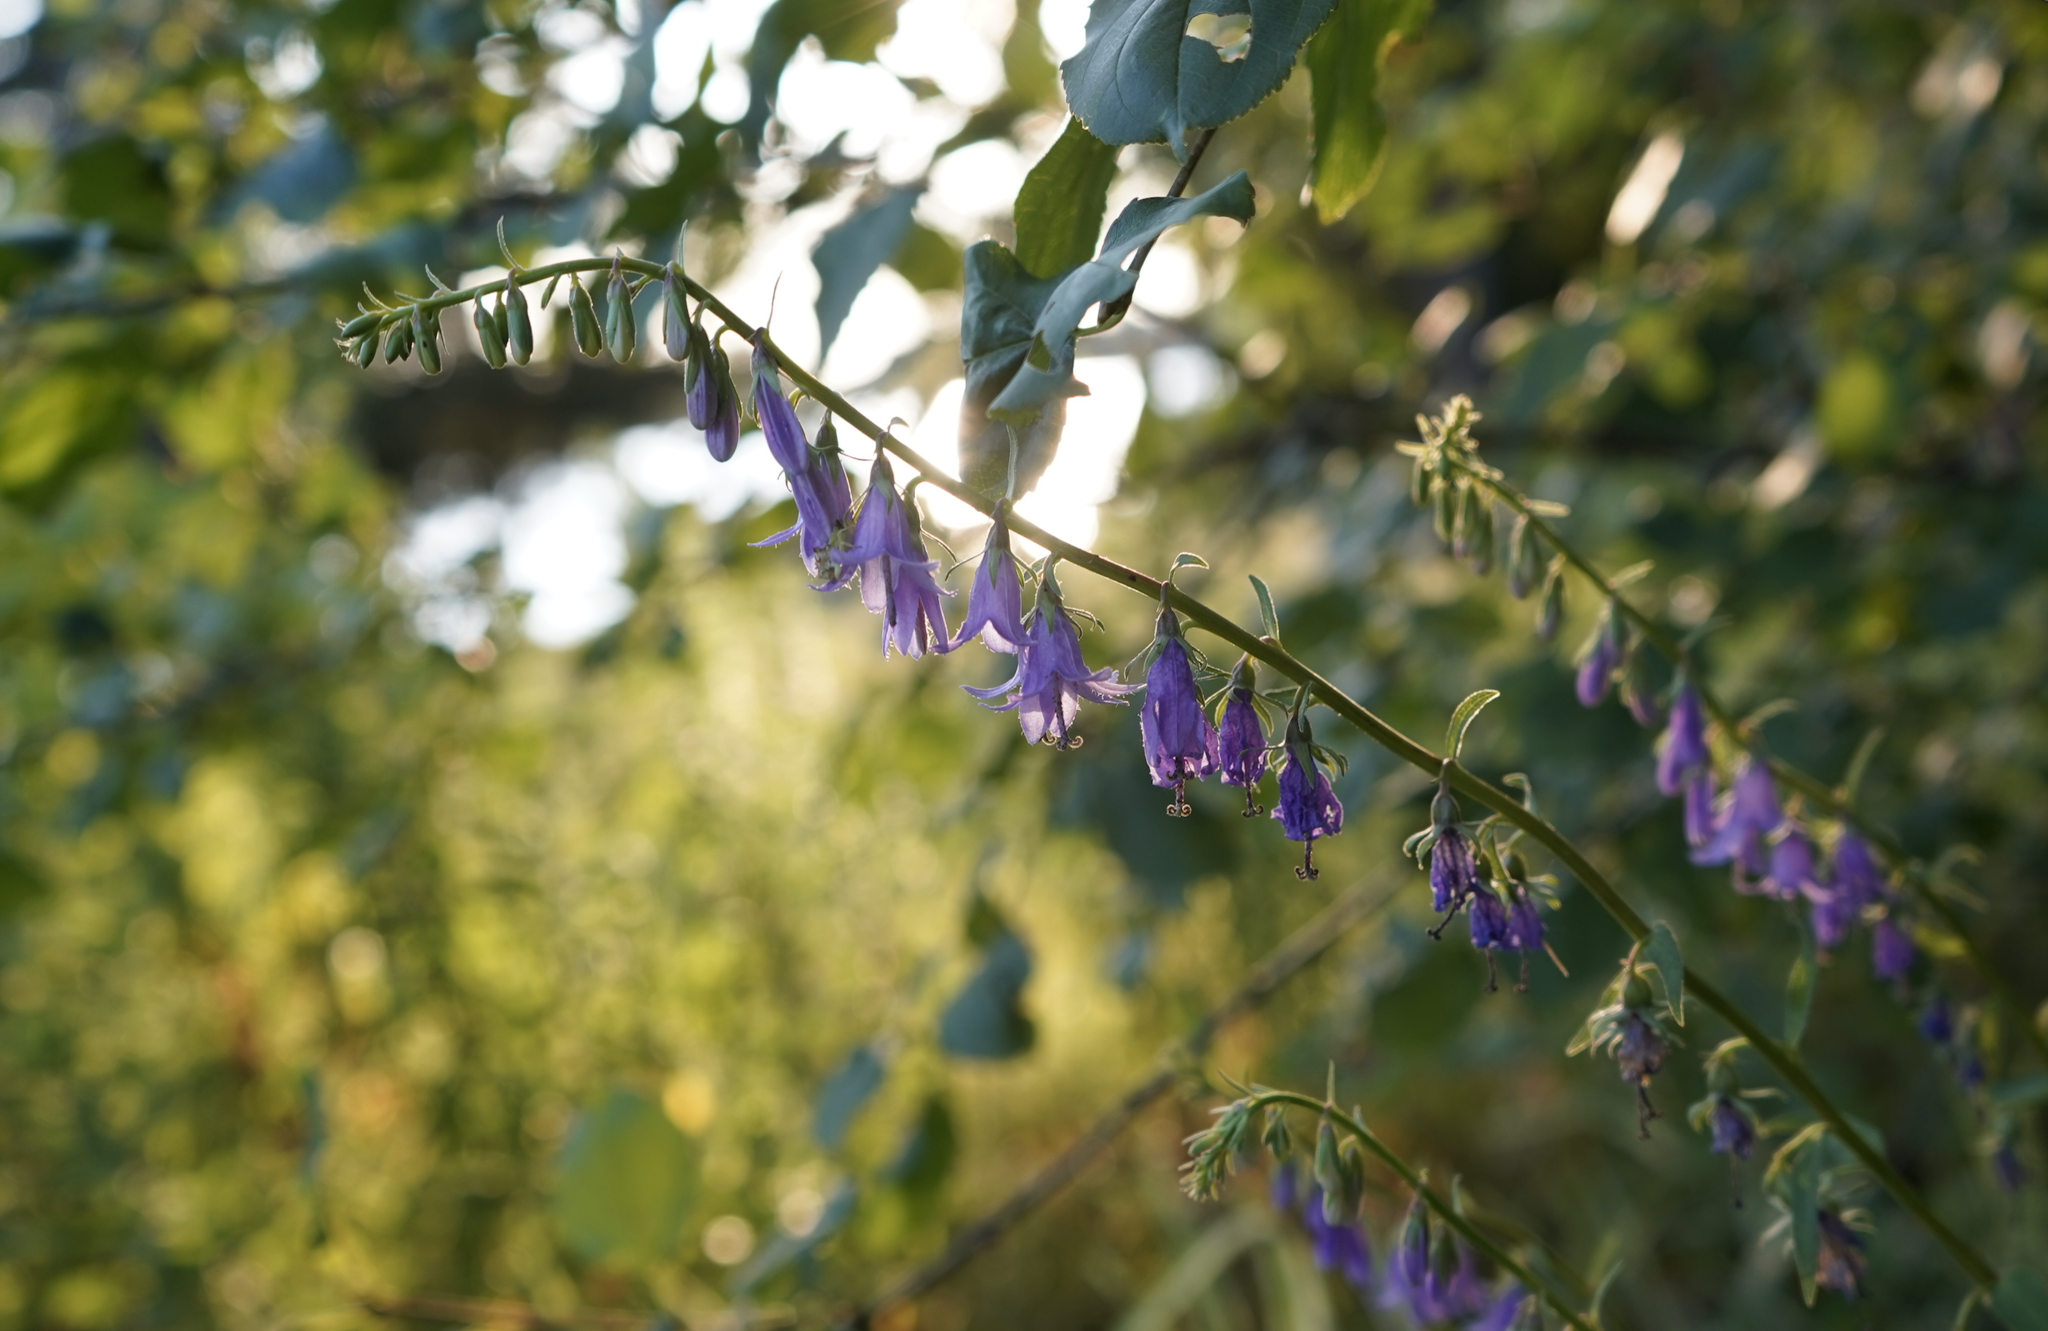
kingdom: Plantae
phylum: Tracheophyta
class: Magnoliopsida
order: Asterales
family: Campanulaceae
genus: Campanula
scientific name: Campanula rapunculoides
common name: Creeping bellflower
